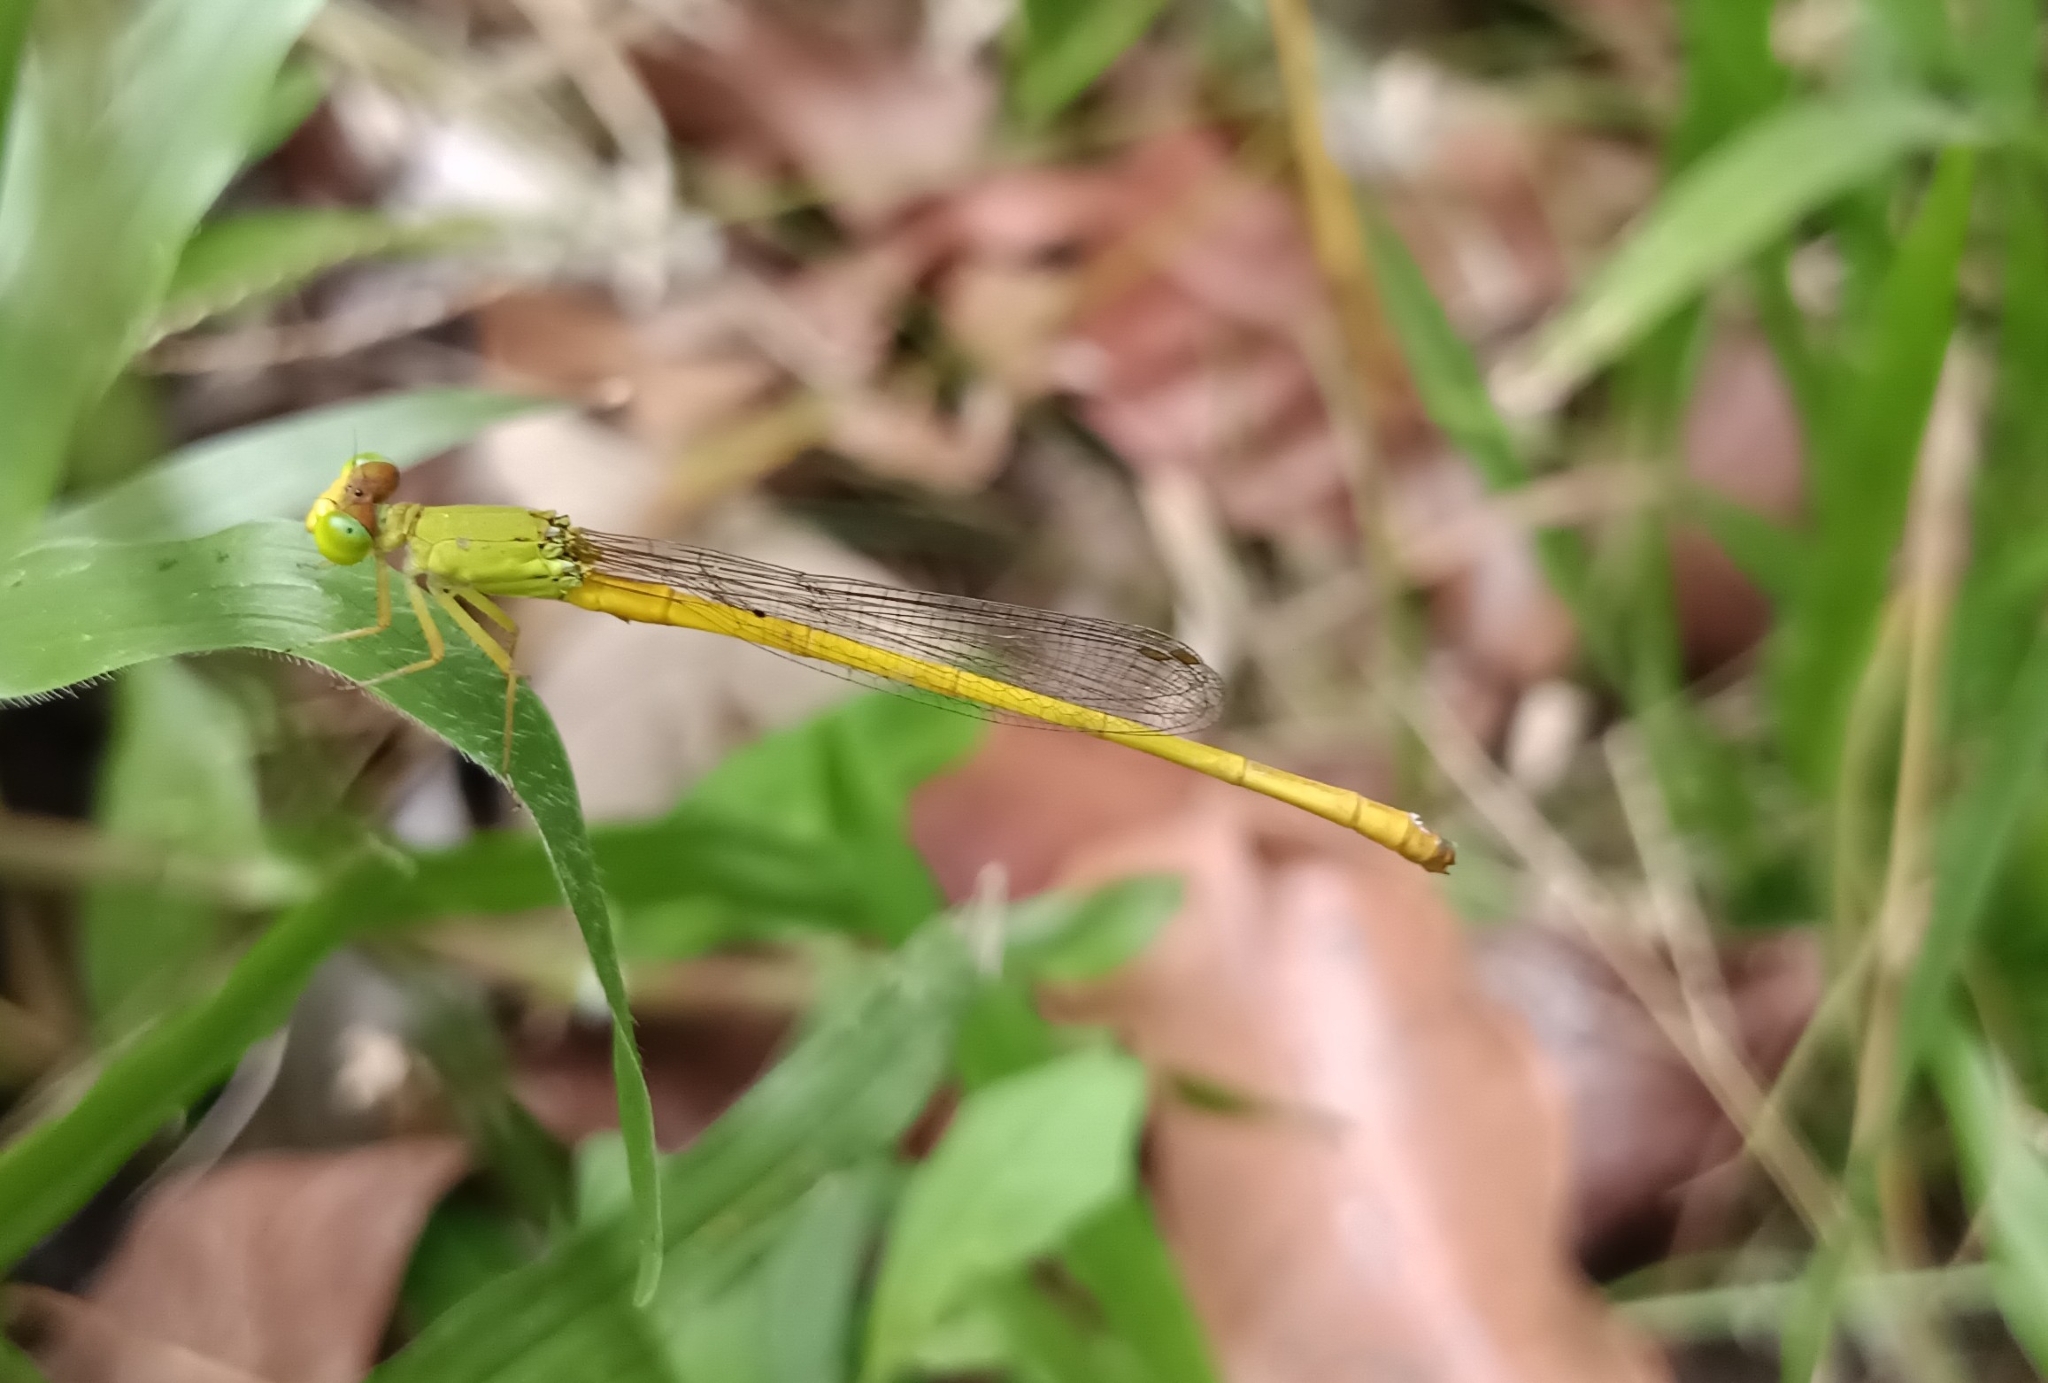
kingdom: Animalia
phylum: Arthropoda
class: Insecta
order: Odonata
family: Coenagrionidae
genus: Ceriagrion
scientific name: Ceriagrion coromandelianum
